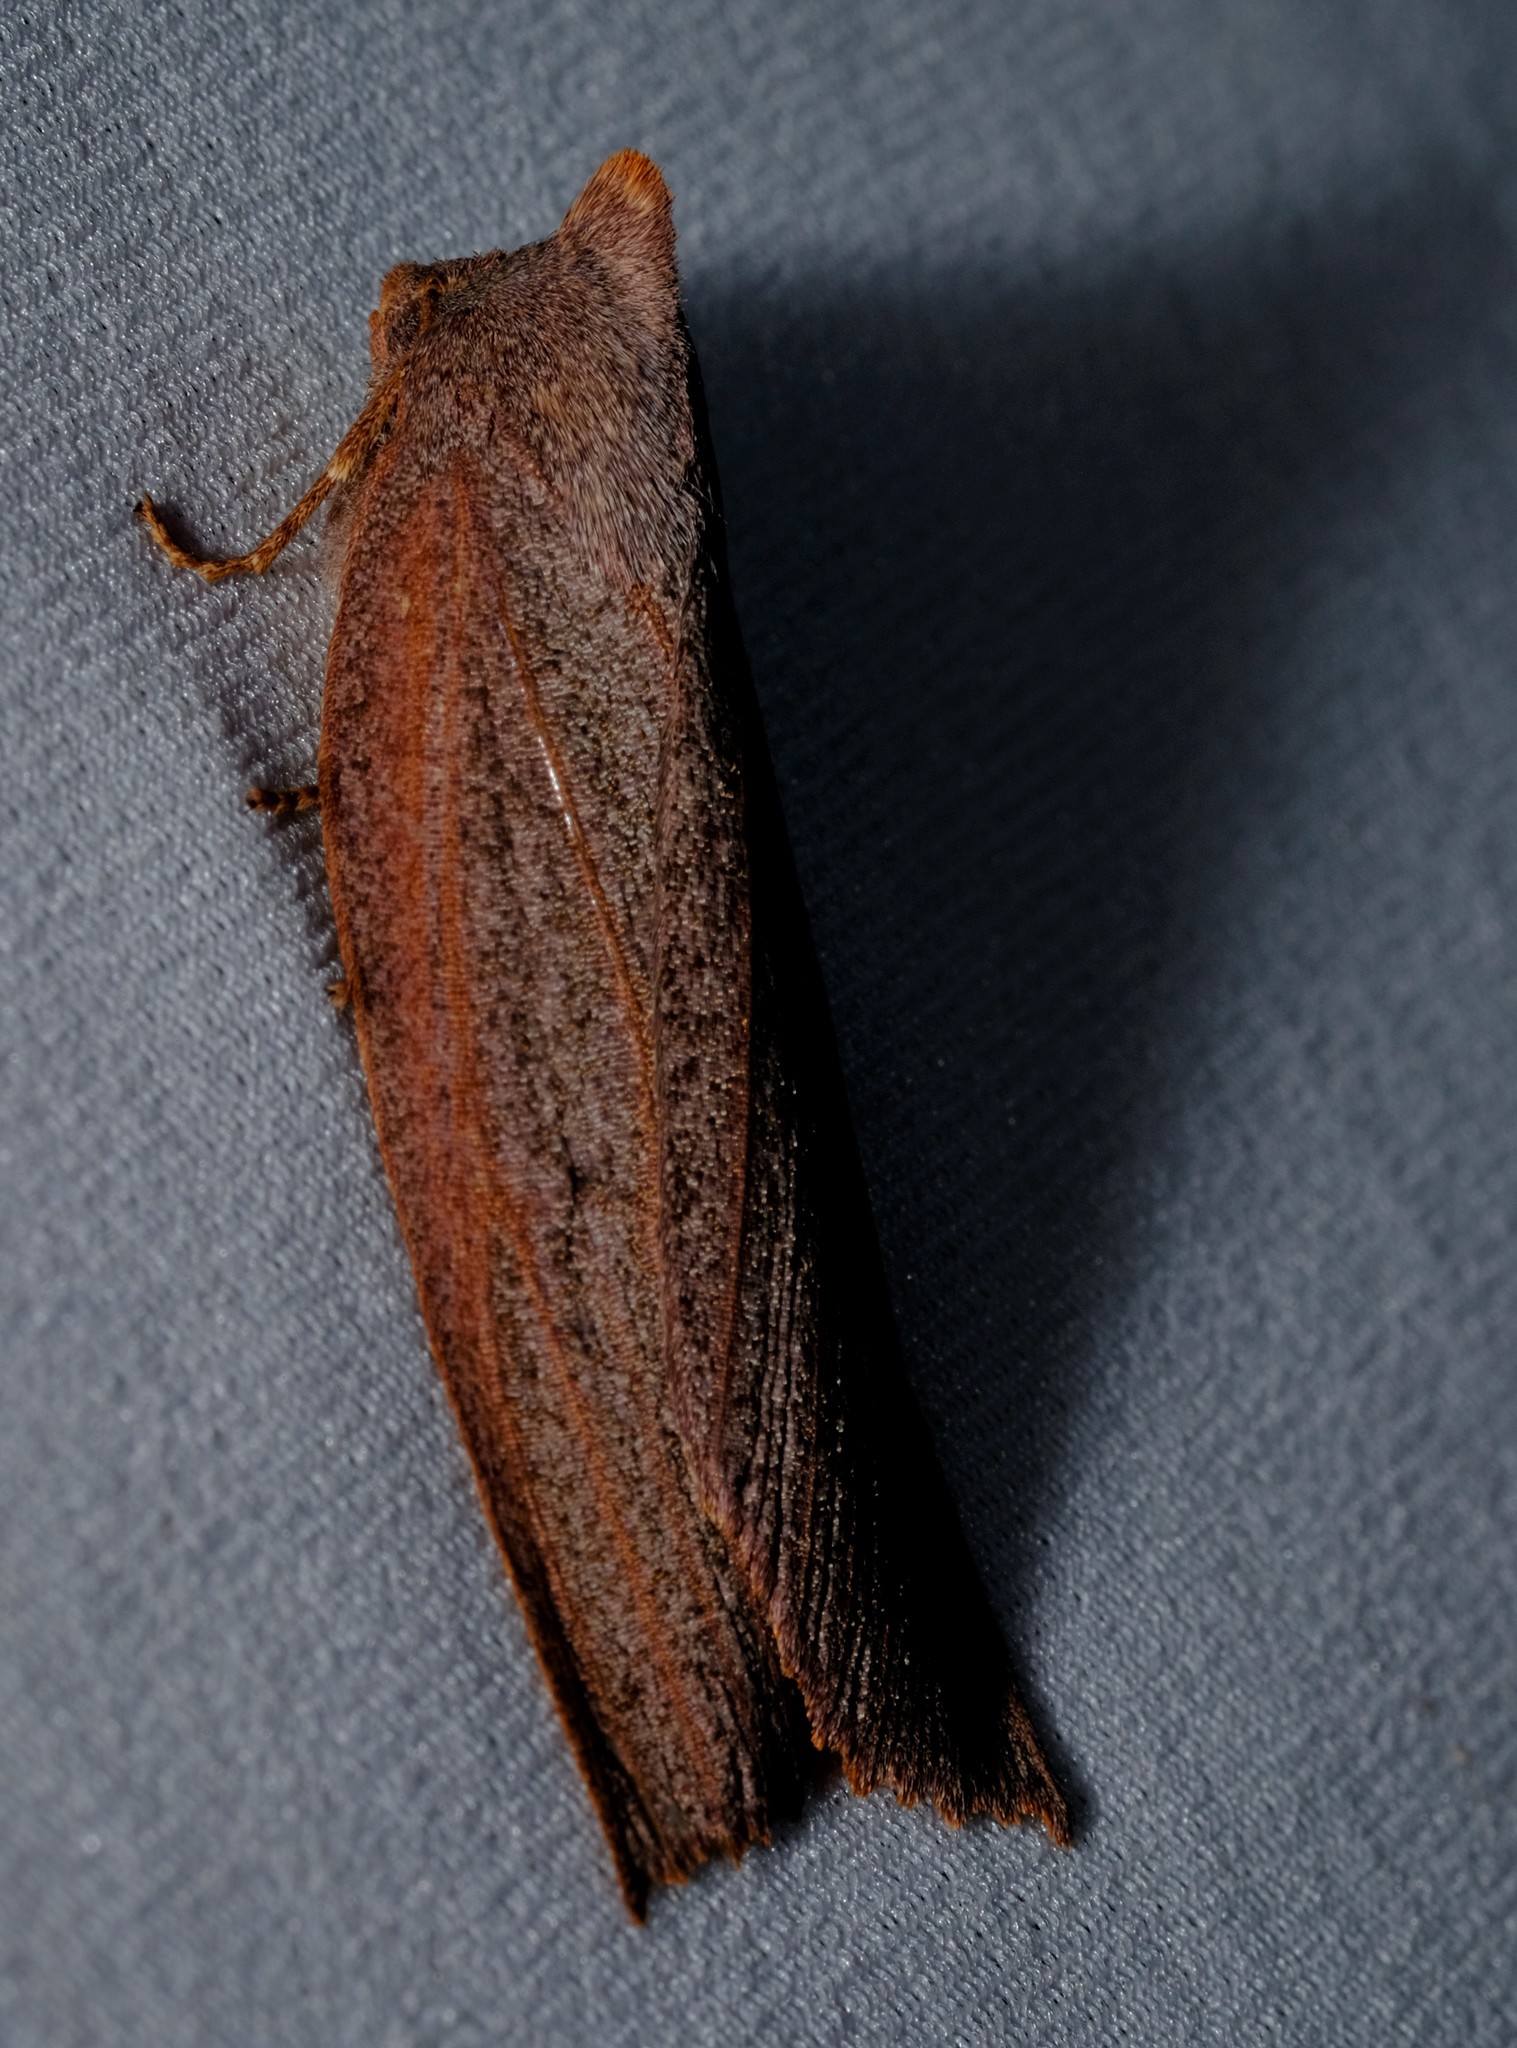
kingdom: Animalia
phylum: Arthropoda
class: Insecta
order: Lepidoptera
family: Geometridae
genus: Paralaea
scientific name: Paralaea porphyrinaria
